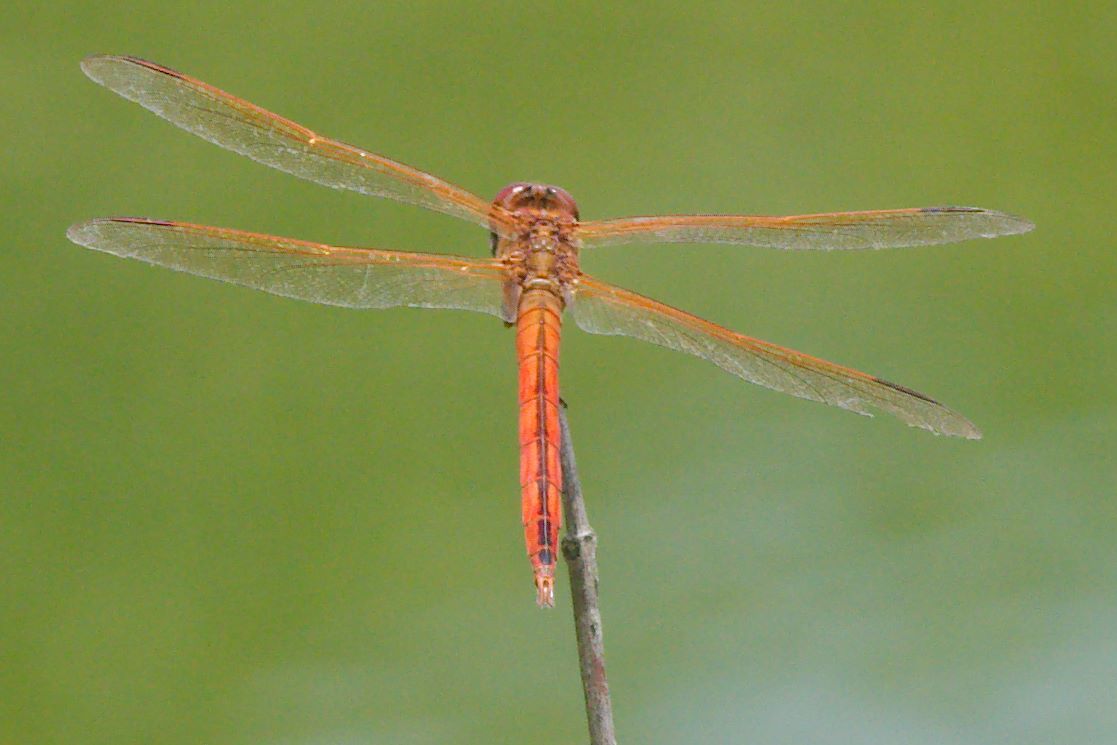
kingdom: Animalia
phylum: Arthropoda
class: Insecta
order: Odonata
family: Libellulidae
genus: Libellula
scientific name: Libellula needhami
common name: Needham's skimmer
